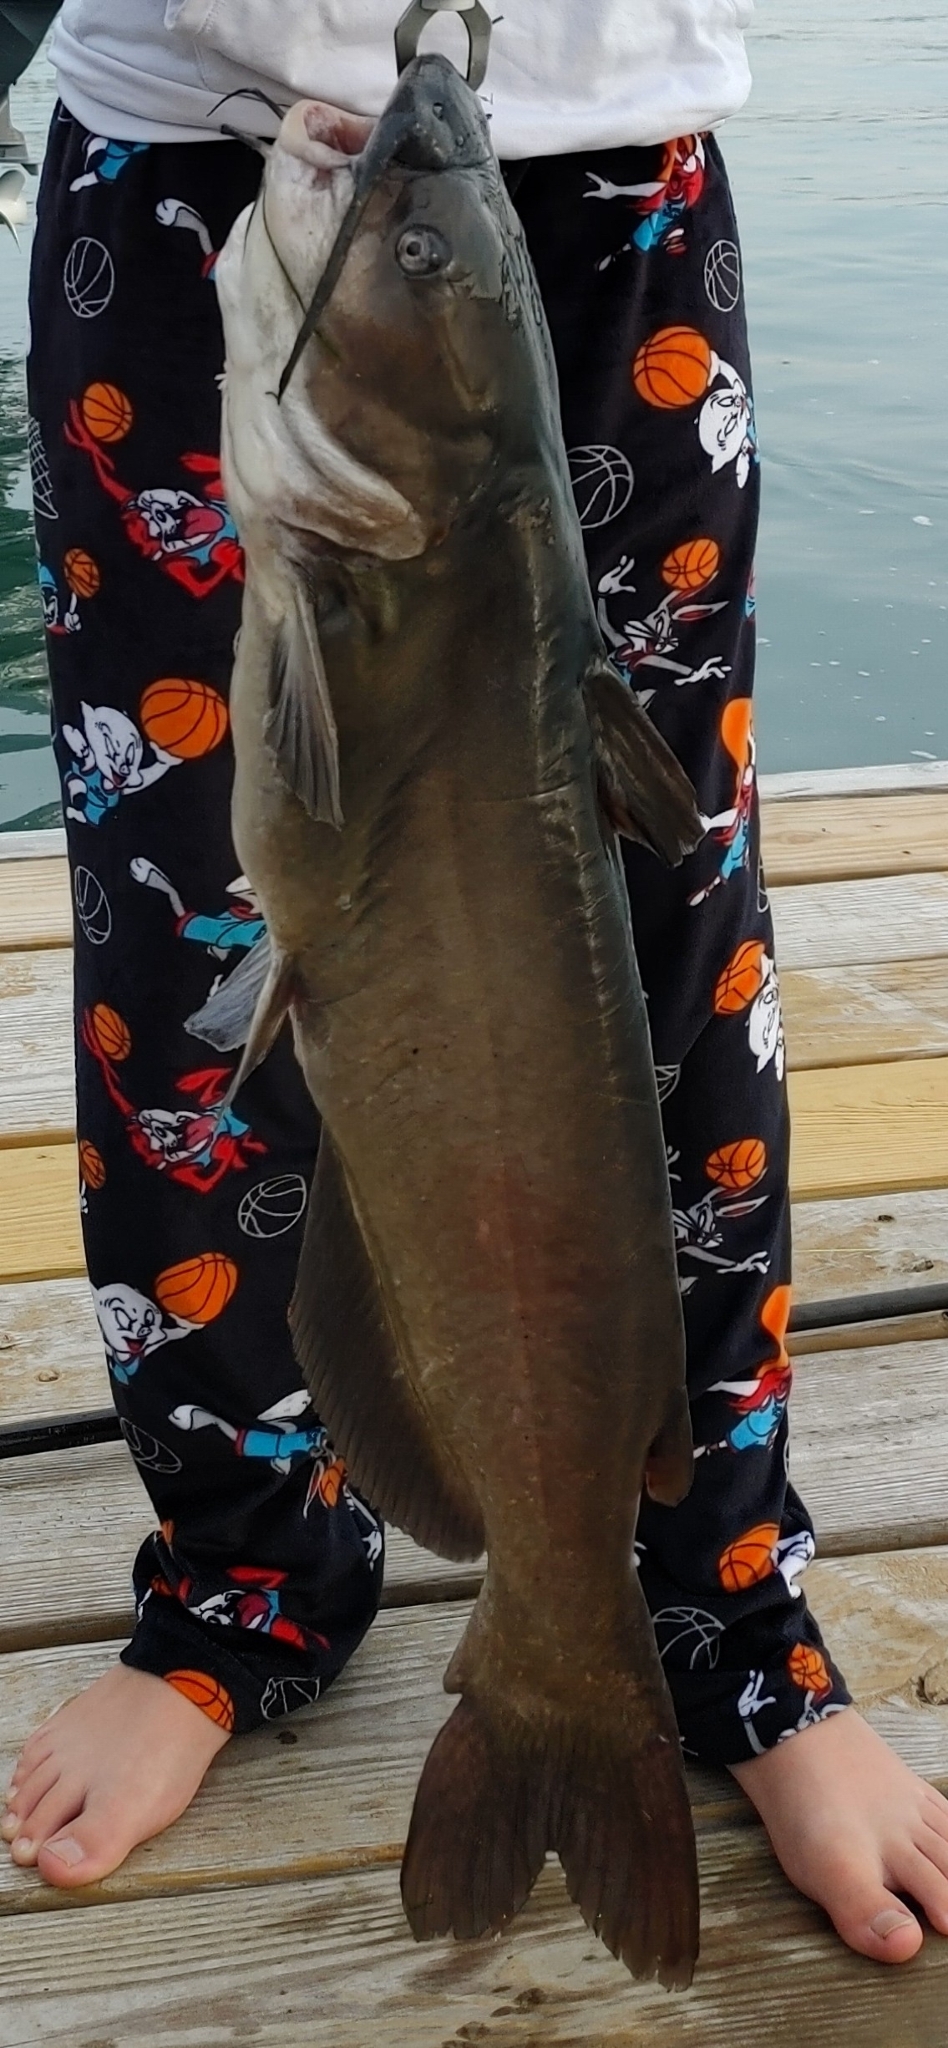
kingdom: Animalia
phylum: Chordata
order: Siluriformes
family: Ictaluridae
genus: Ictalurus
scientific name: Ictalurus punctatus
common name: Channel catfish
